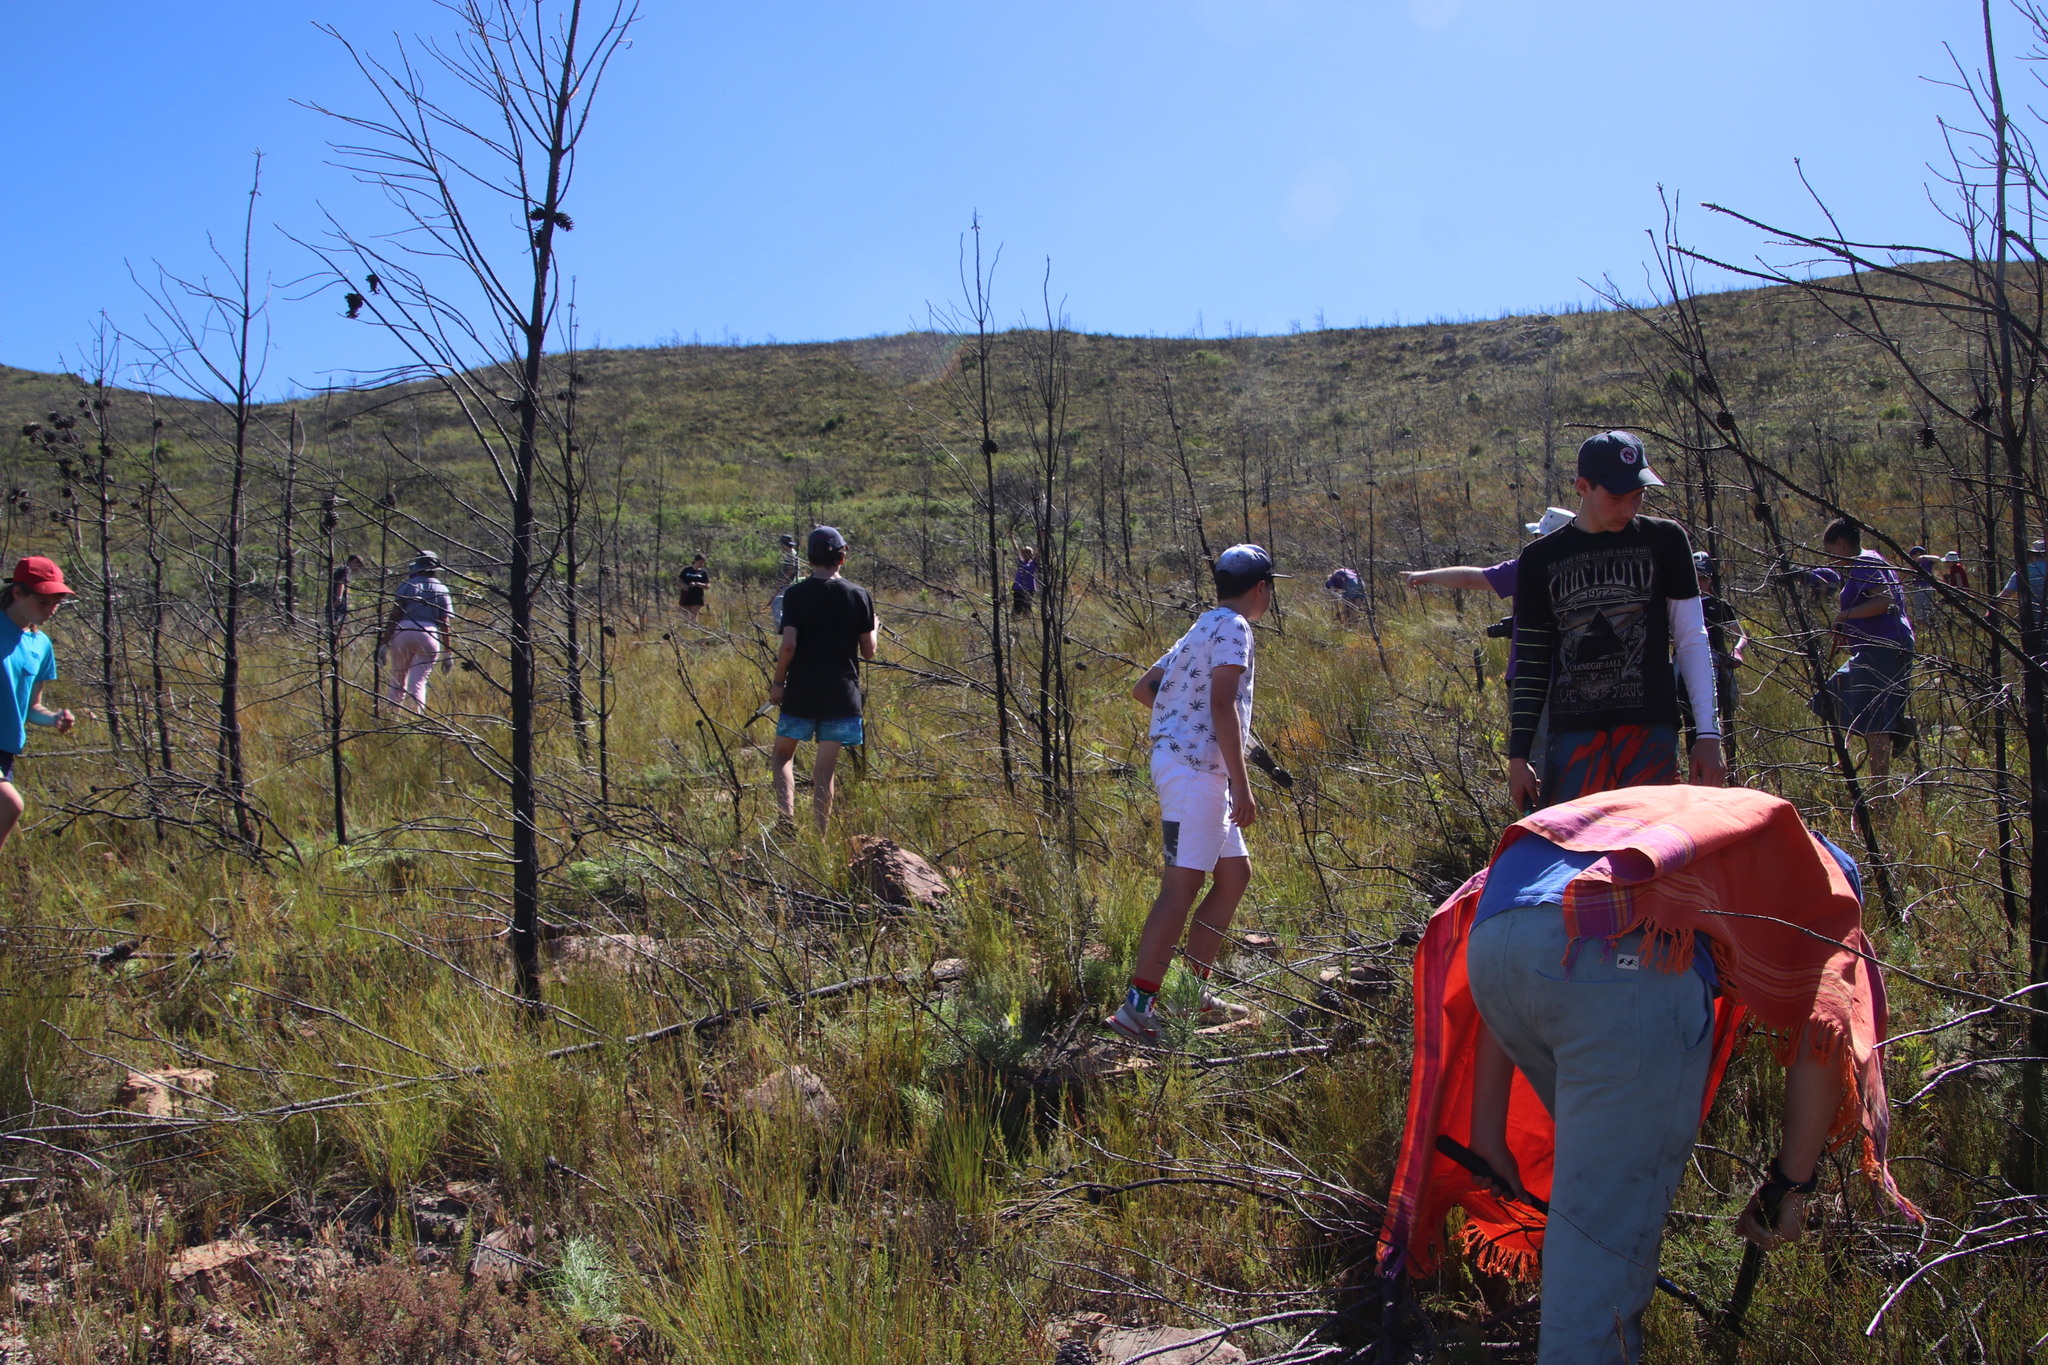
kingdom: Plantae
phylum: Tracheophyta
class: Pinopsida
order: Pinales
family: Pinaceae
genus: Pinus
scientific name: Pinus pinaster
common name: Maritime pine
